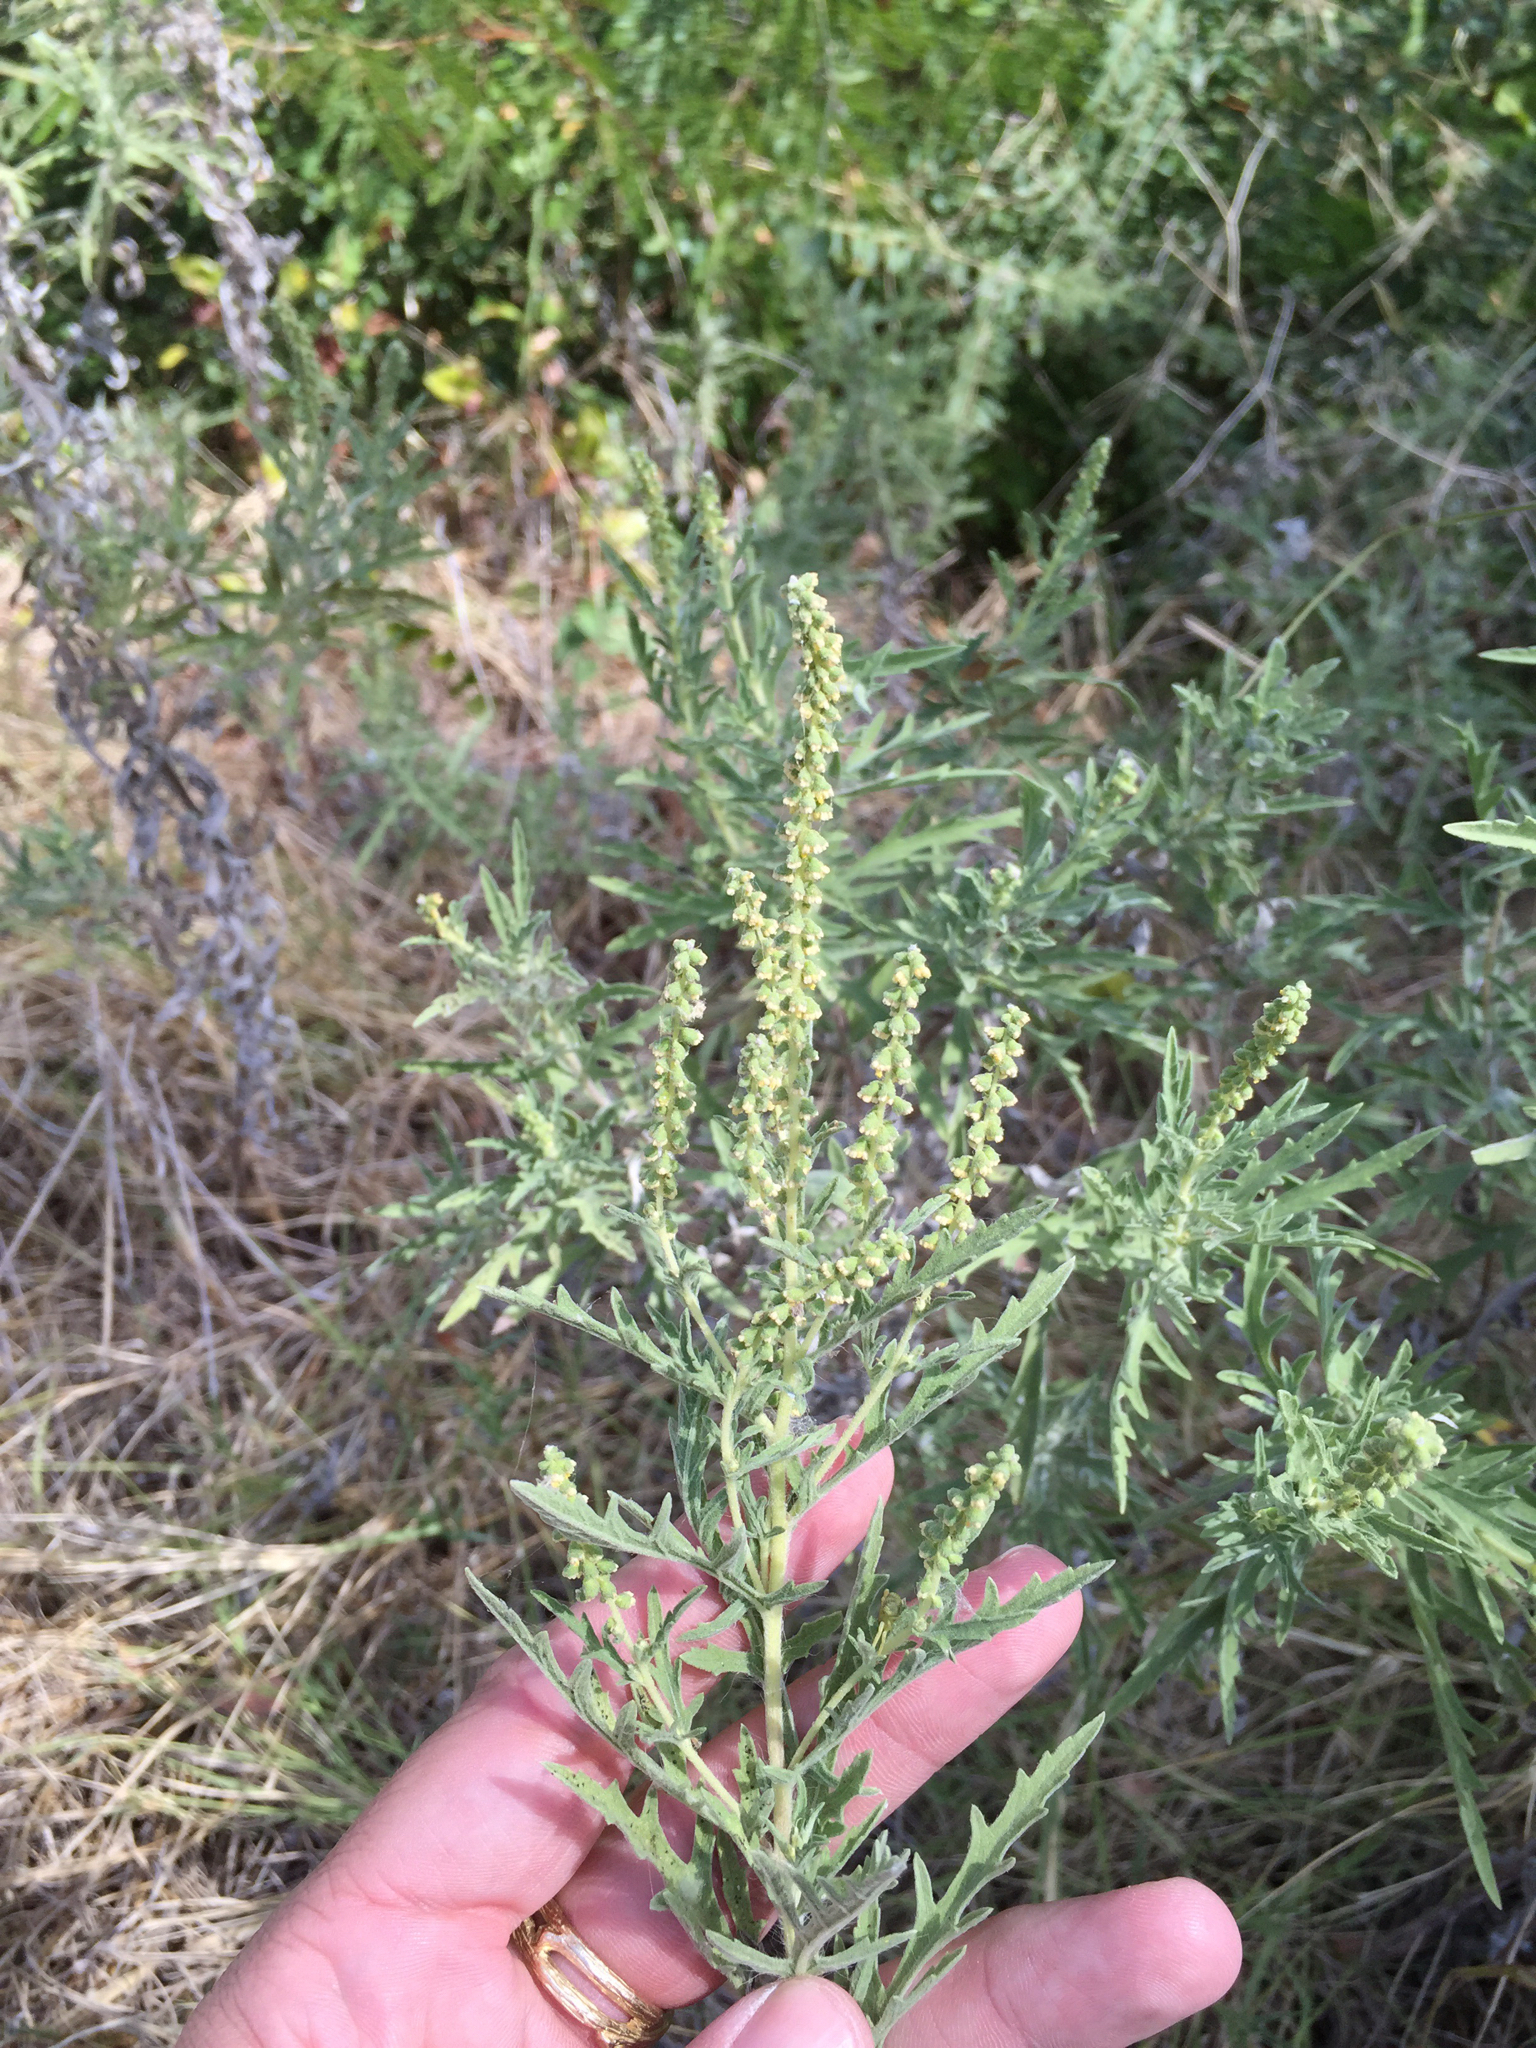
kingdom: Plantae
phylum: Tracheophyta
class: Magnoliopsida
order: Asterales
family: Asteraceae
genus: Ambrosia
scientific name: Ambrosia psilostachya
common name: Perennial ragweed
